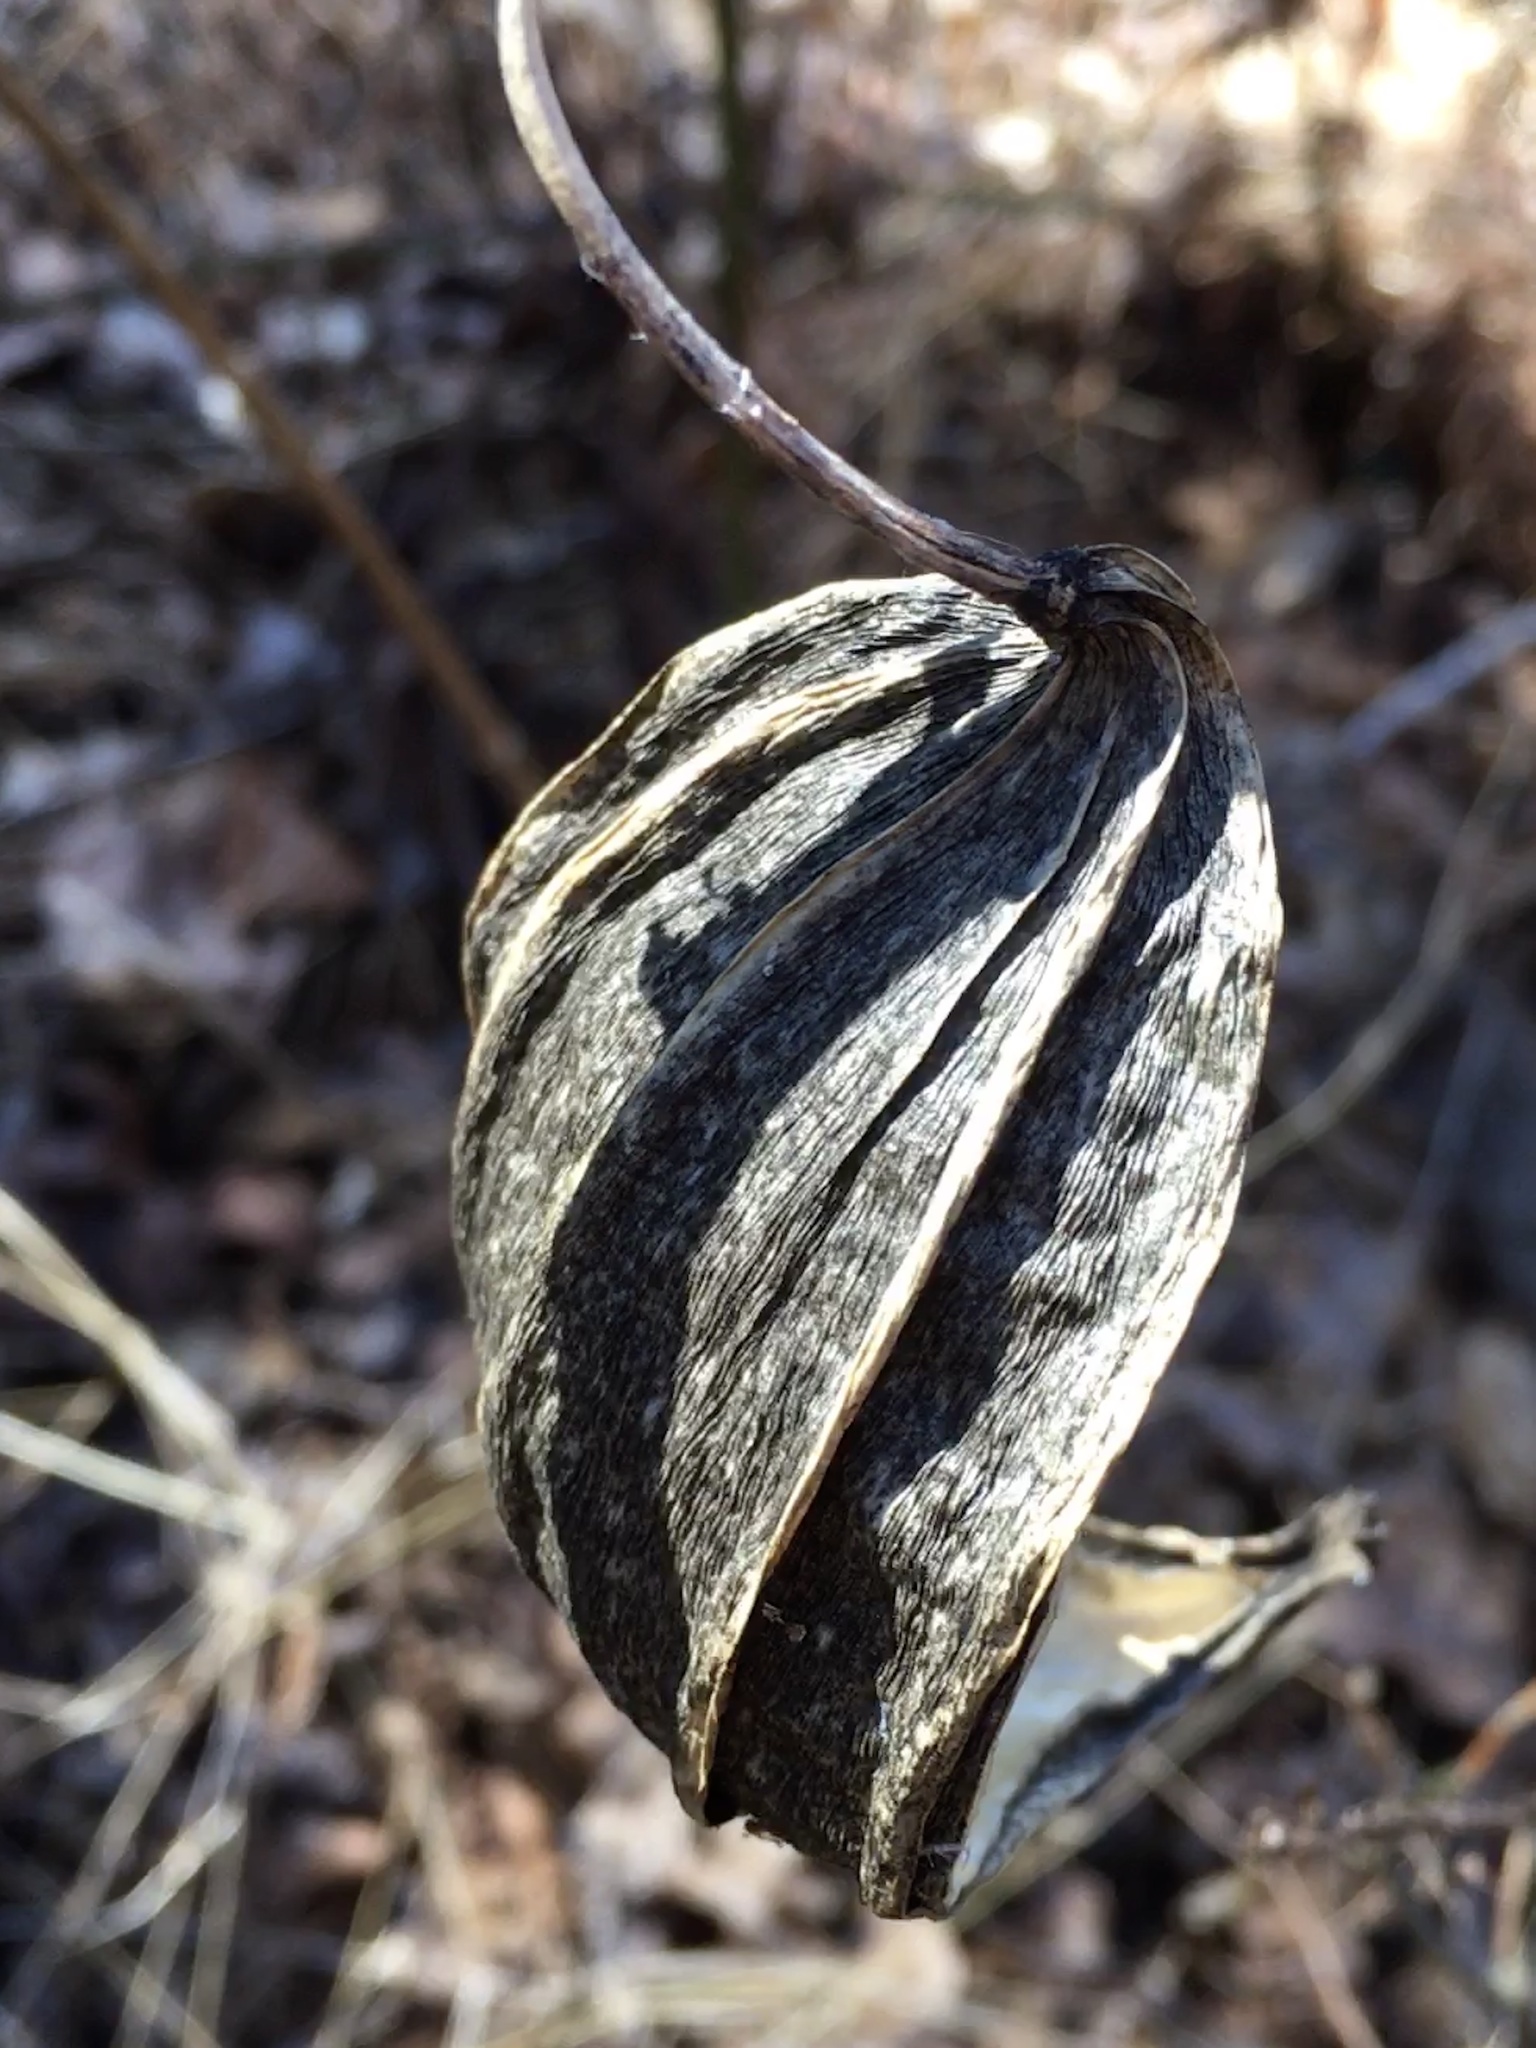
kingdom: Plantae
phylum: Tracheophyta
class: Magnoliopsida
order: Gentianales
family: Apocynaceae
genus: Gonolobus
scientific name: Gonolobus suberosus
